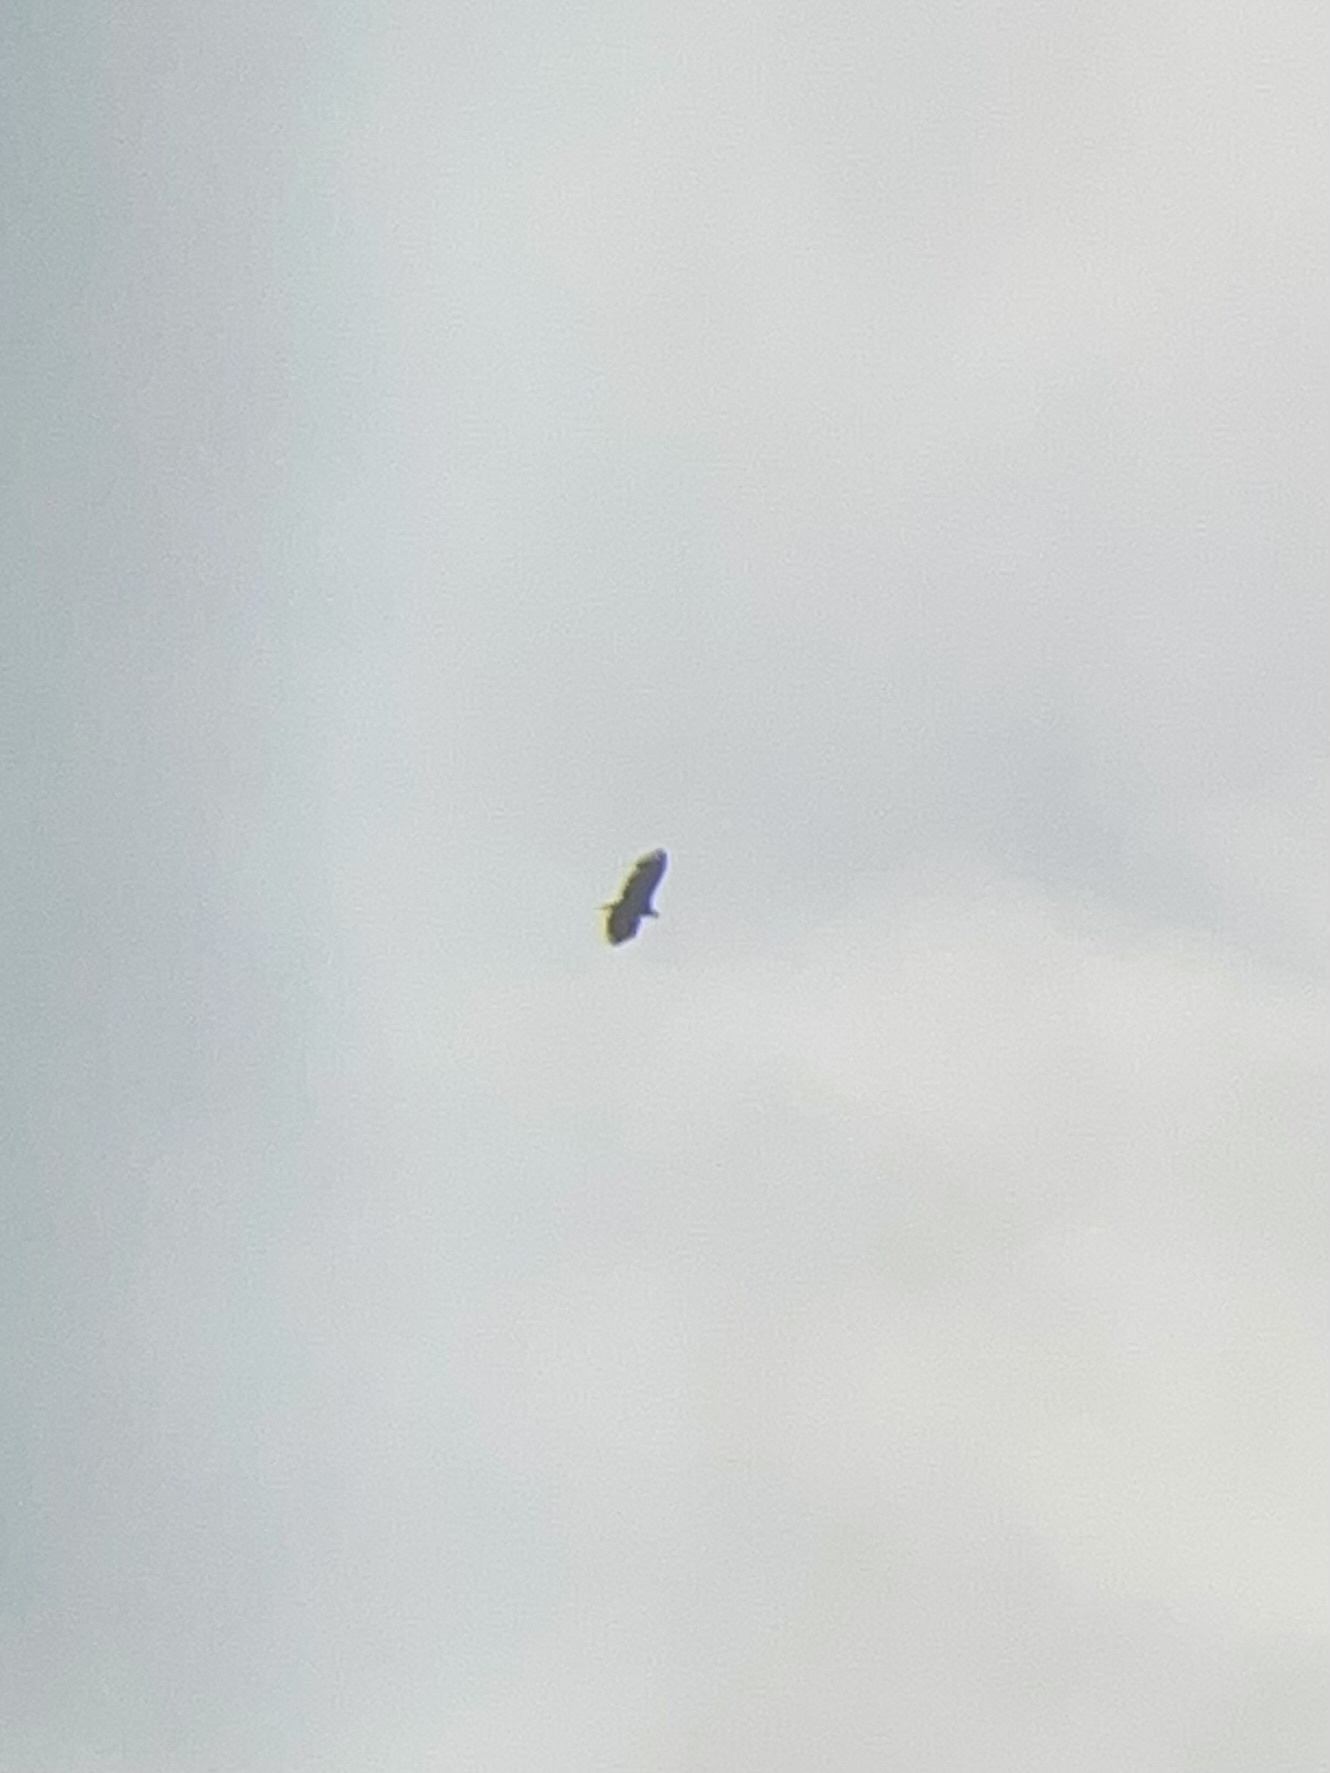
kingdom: Animalia
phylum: Chordata
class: Aves
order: Accipitriformes
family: Accipitridae
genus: Haliaeetus
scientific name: Haliaeetus albicilla
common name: White-tailed eagle
